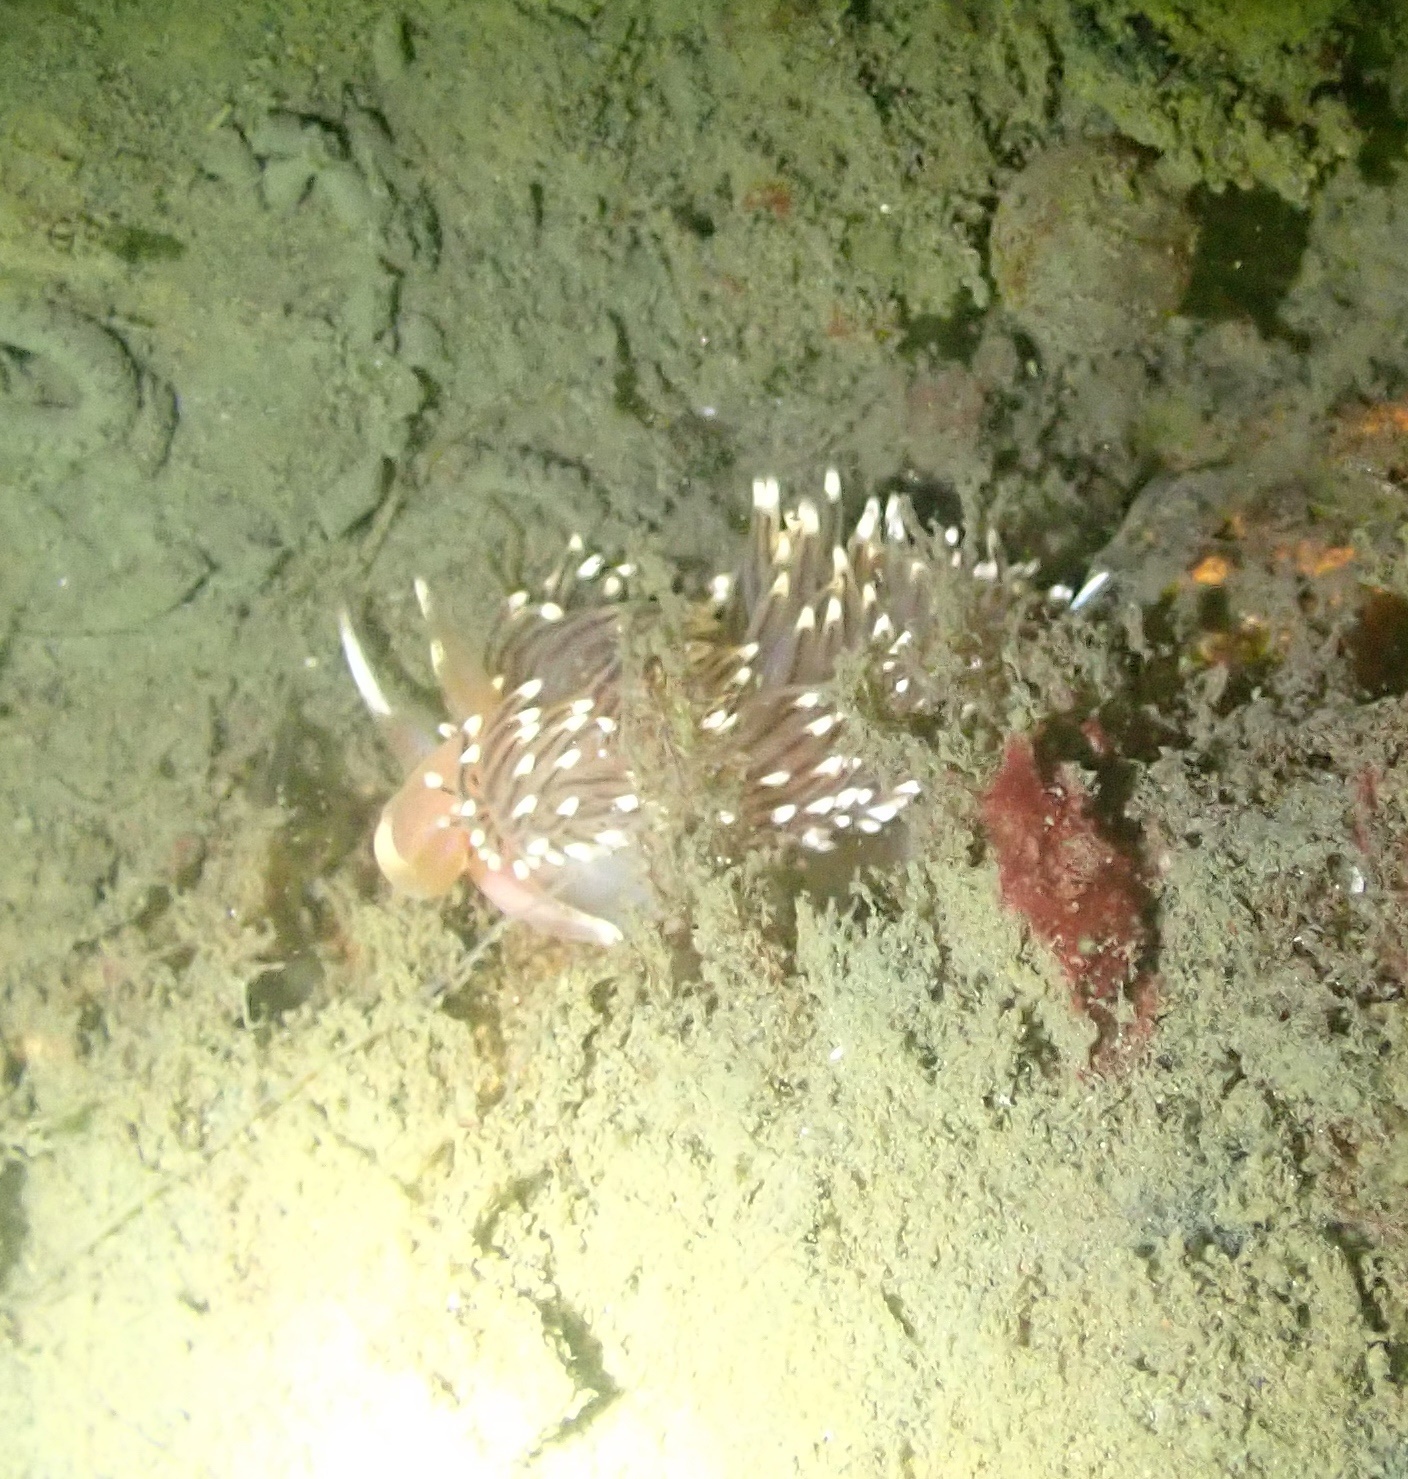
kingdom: Animalia
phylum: Mollusca
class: Gastropoda
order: Nudibranchia
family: Facelinidae
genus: Facelina
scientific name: Facelina bostoniensis
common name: Boston facelina
